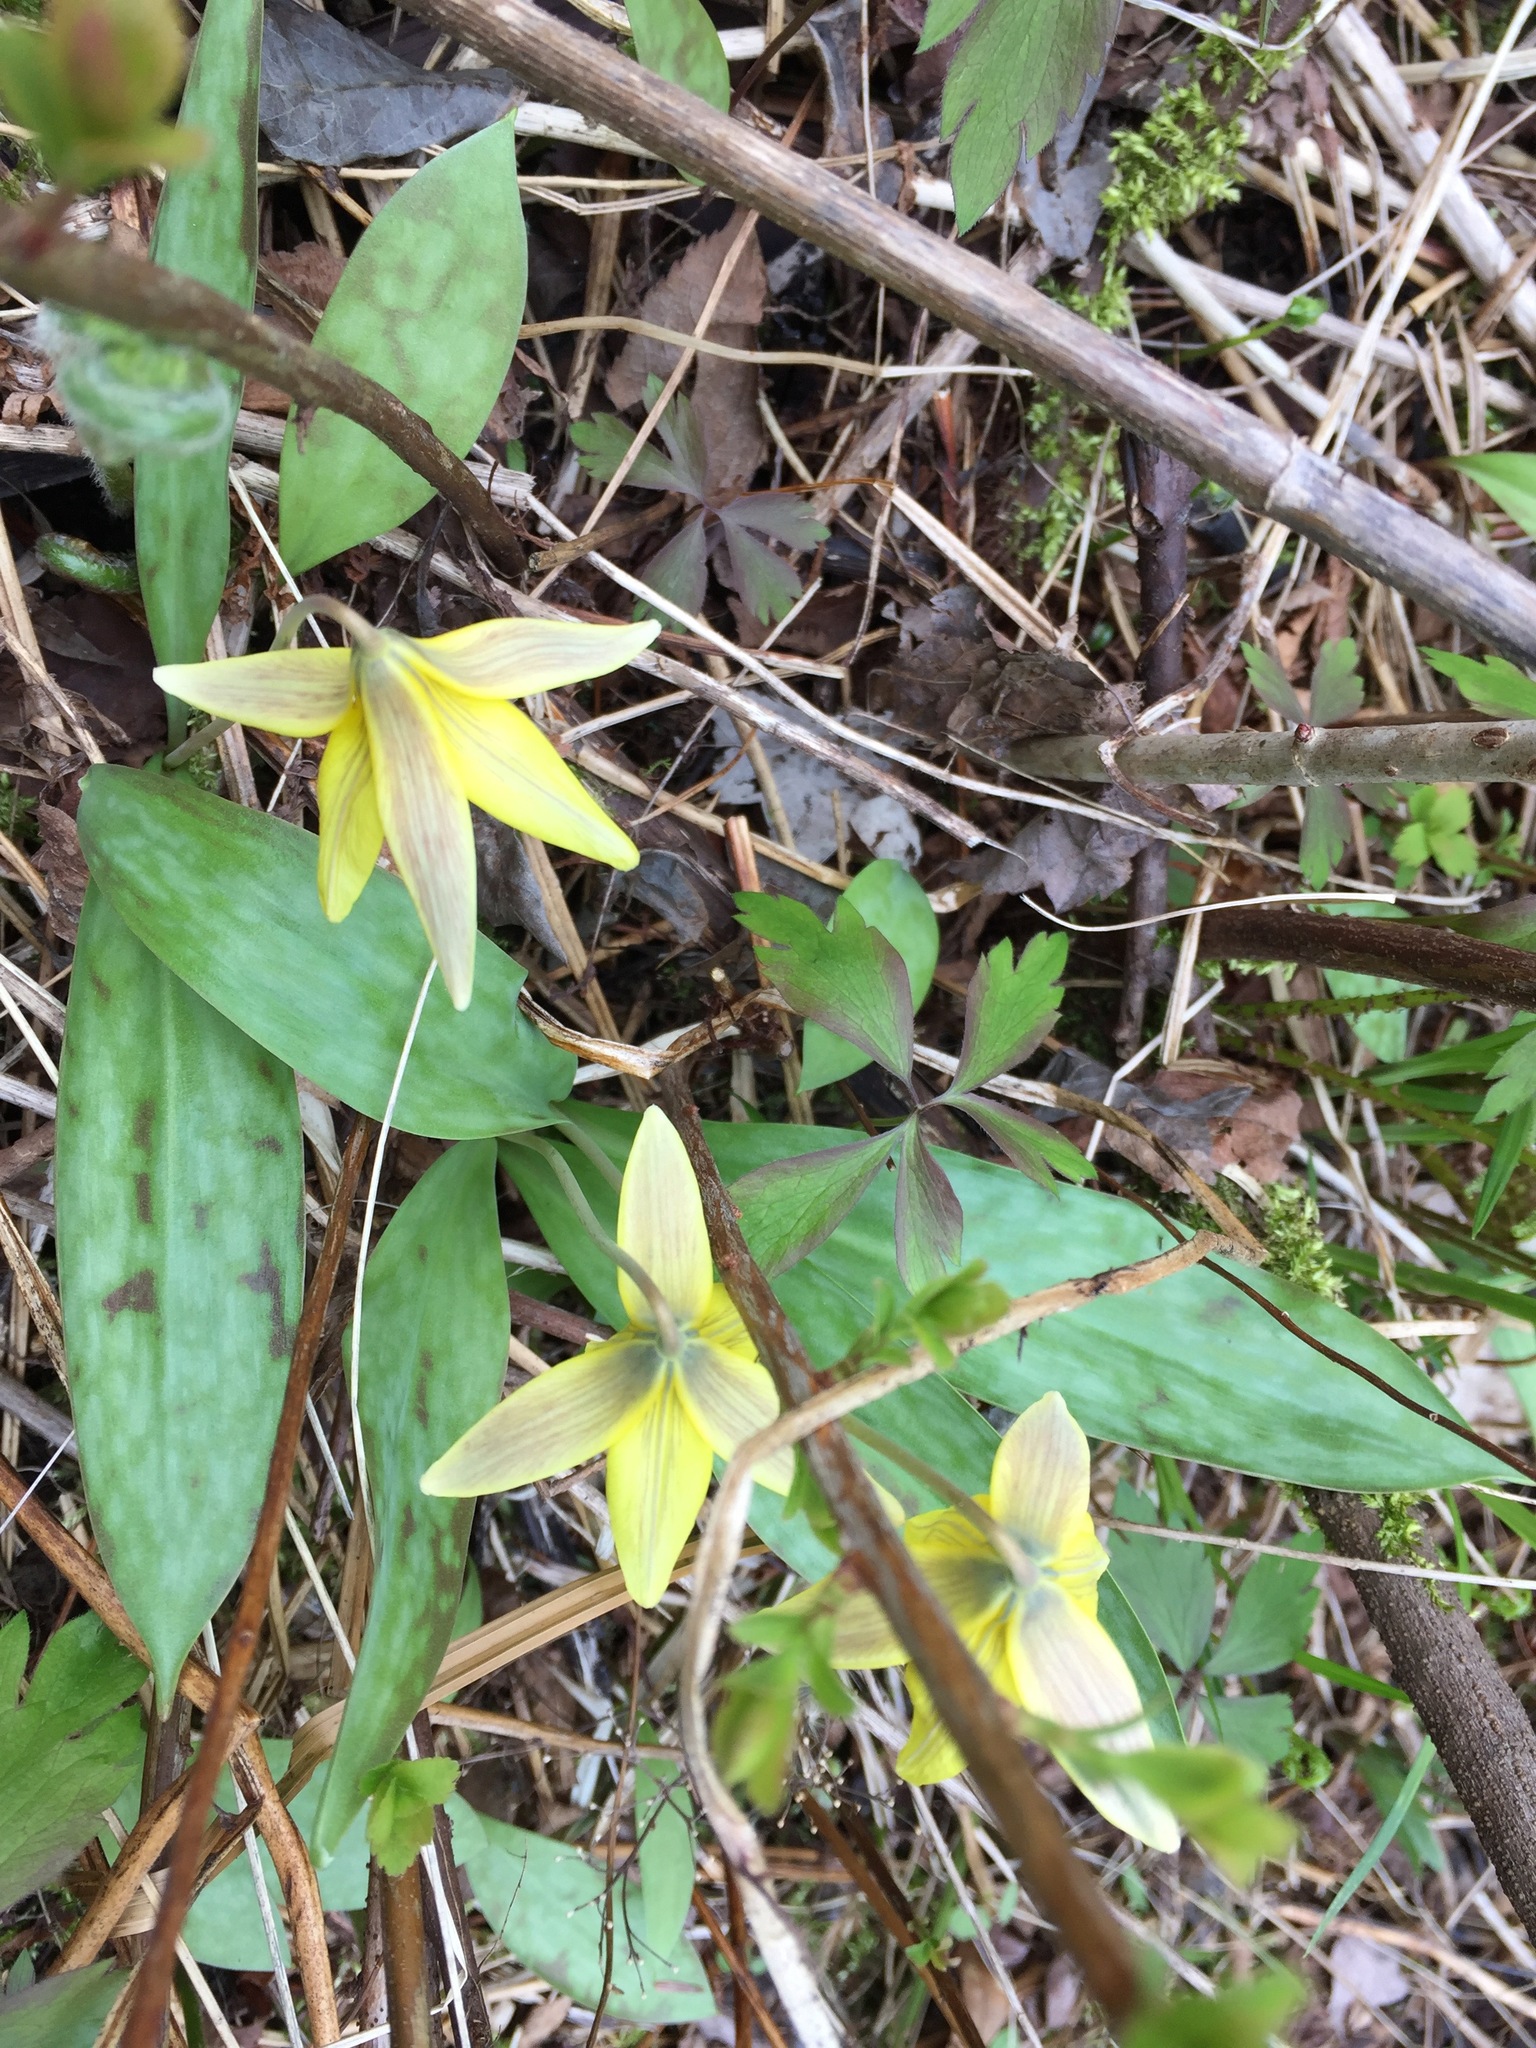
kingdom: Plantae
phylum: Tracheophyta
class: Liliopsida
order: Liliales
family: Liliaceae
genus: Erythronium
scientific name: Erythronium americanum
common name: Yellow adder's-tongue
